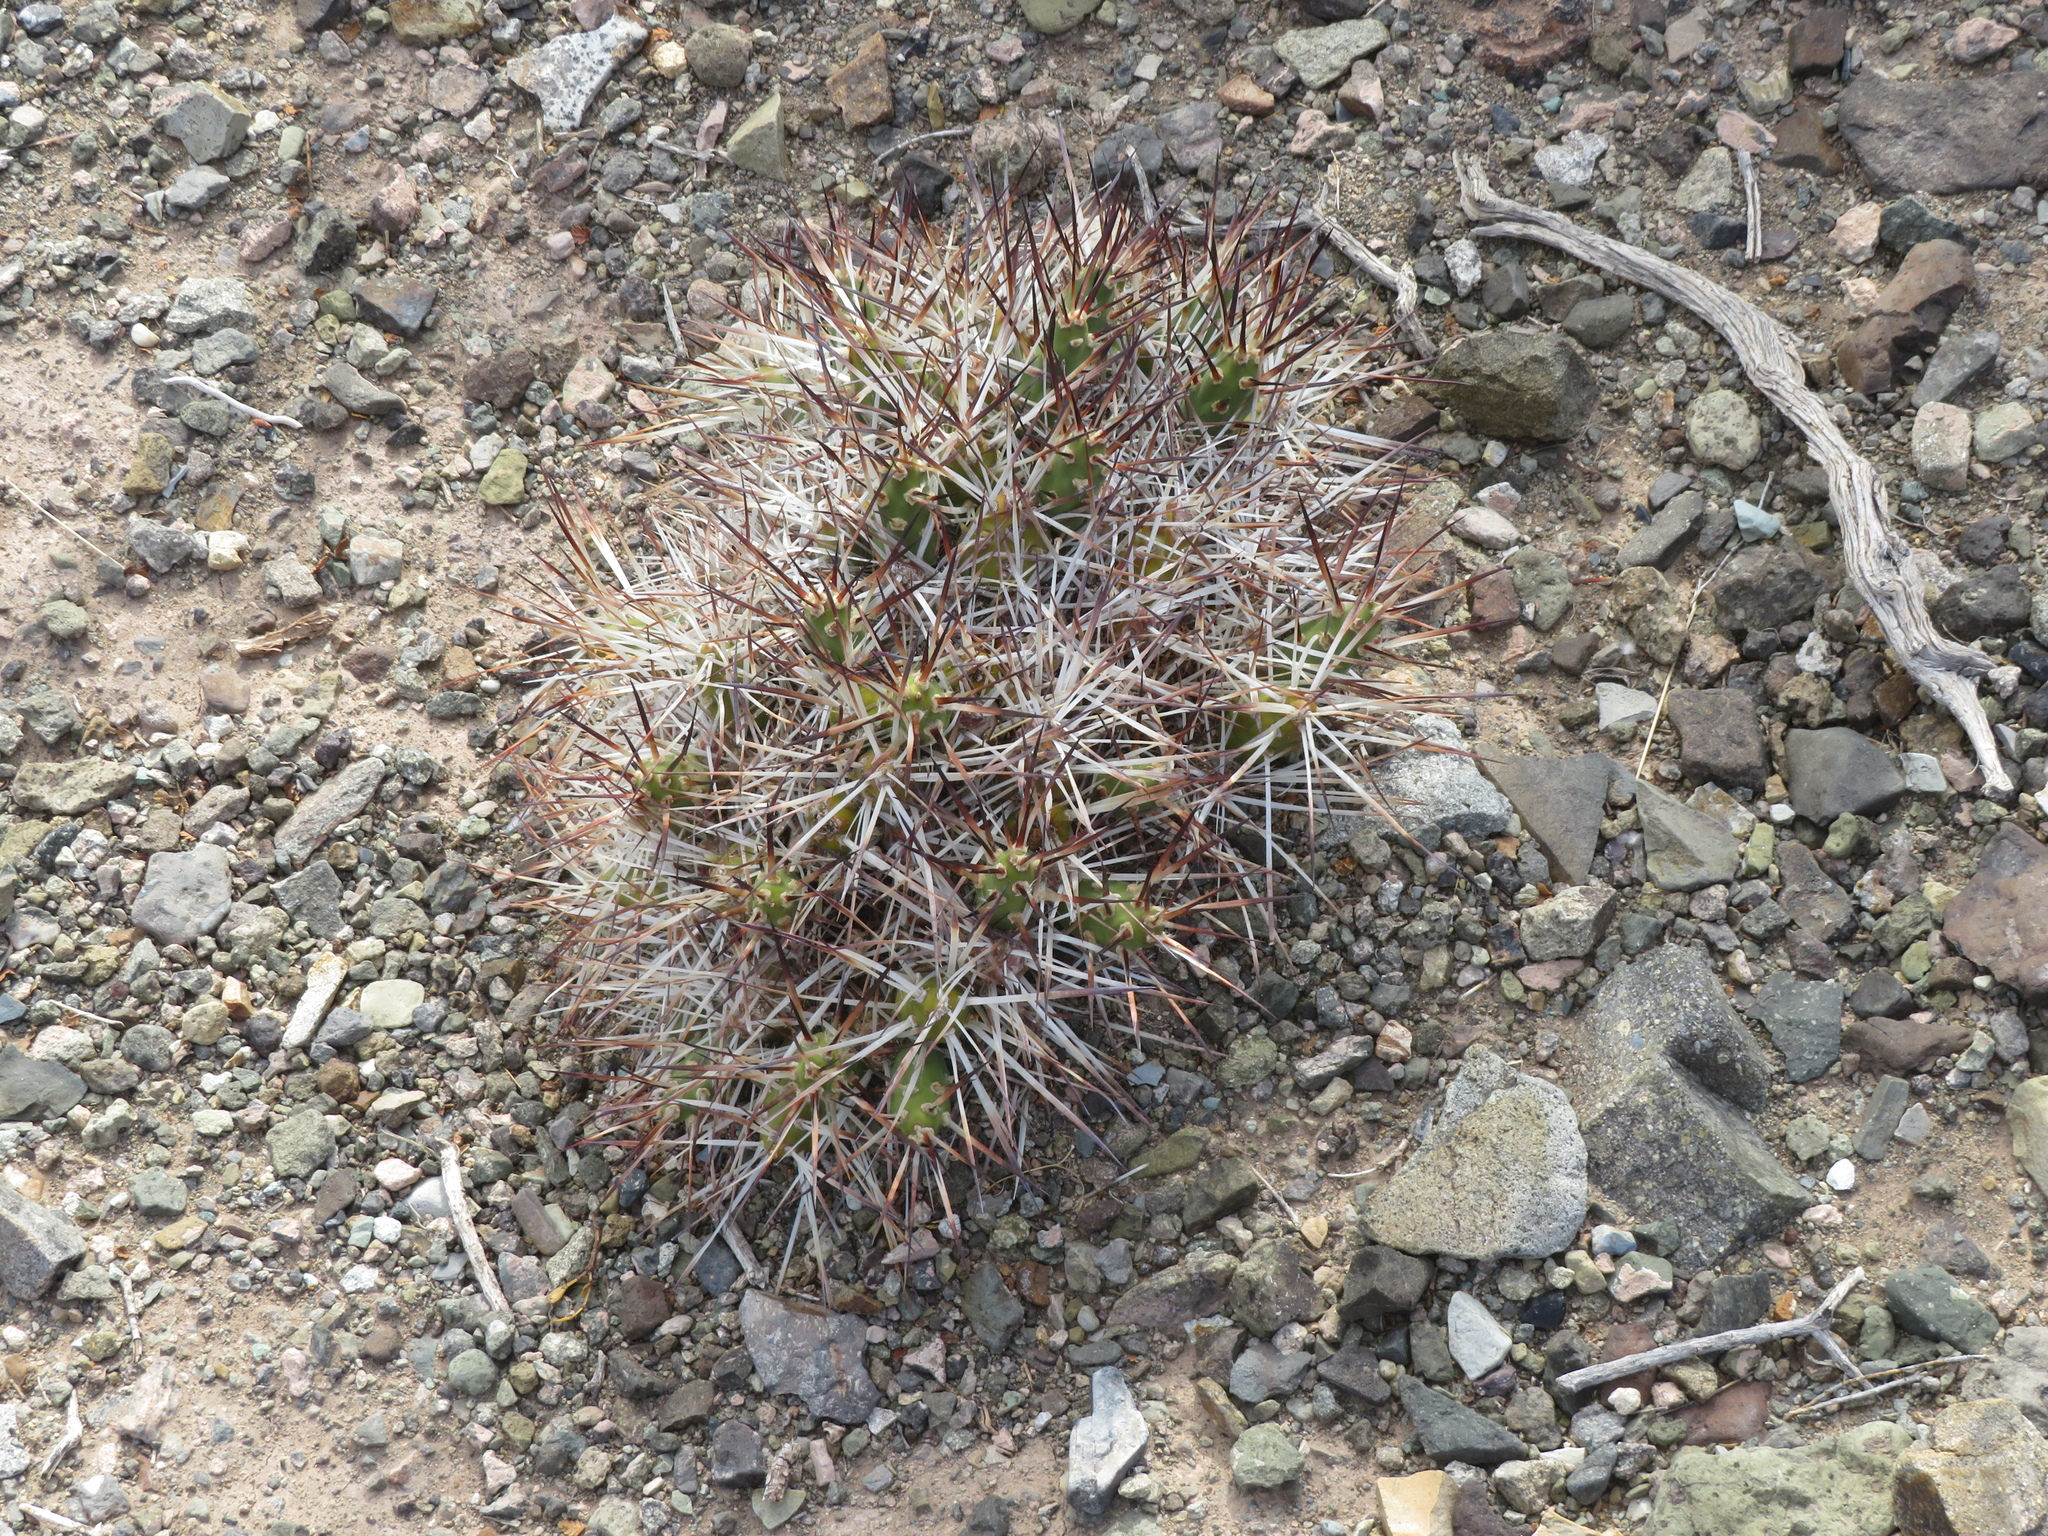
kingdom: Plantae
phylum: Tracheophyta
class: Magnoliopsida
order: Caryophyllales
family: Cactaceae
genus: Maihueniopsis
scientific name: Maihueniopsis glomerata
